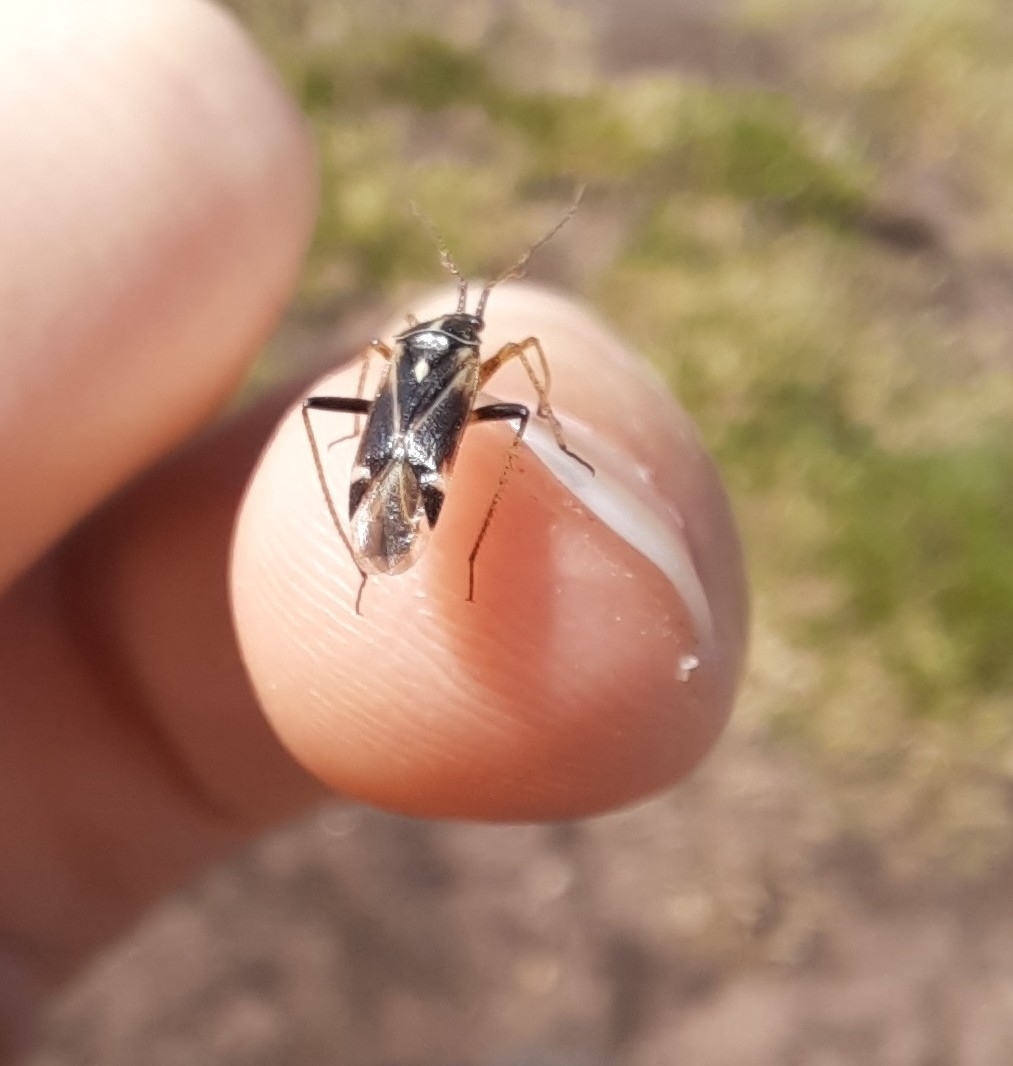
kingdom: Animalia
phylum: Arthropoda
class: Insecta
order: Hemiptera
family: Miridae
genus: Harpocera
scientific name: Harpocera thoracica
